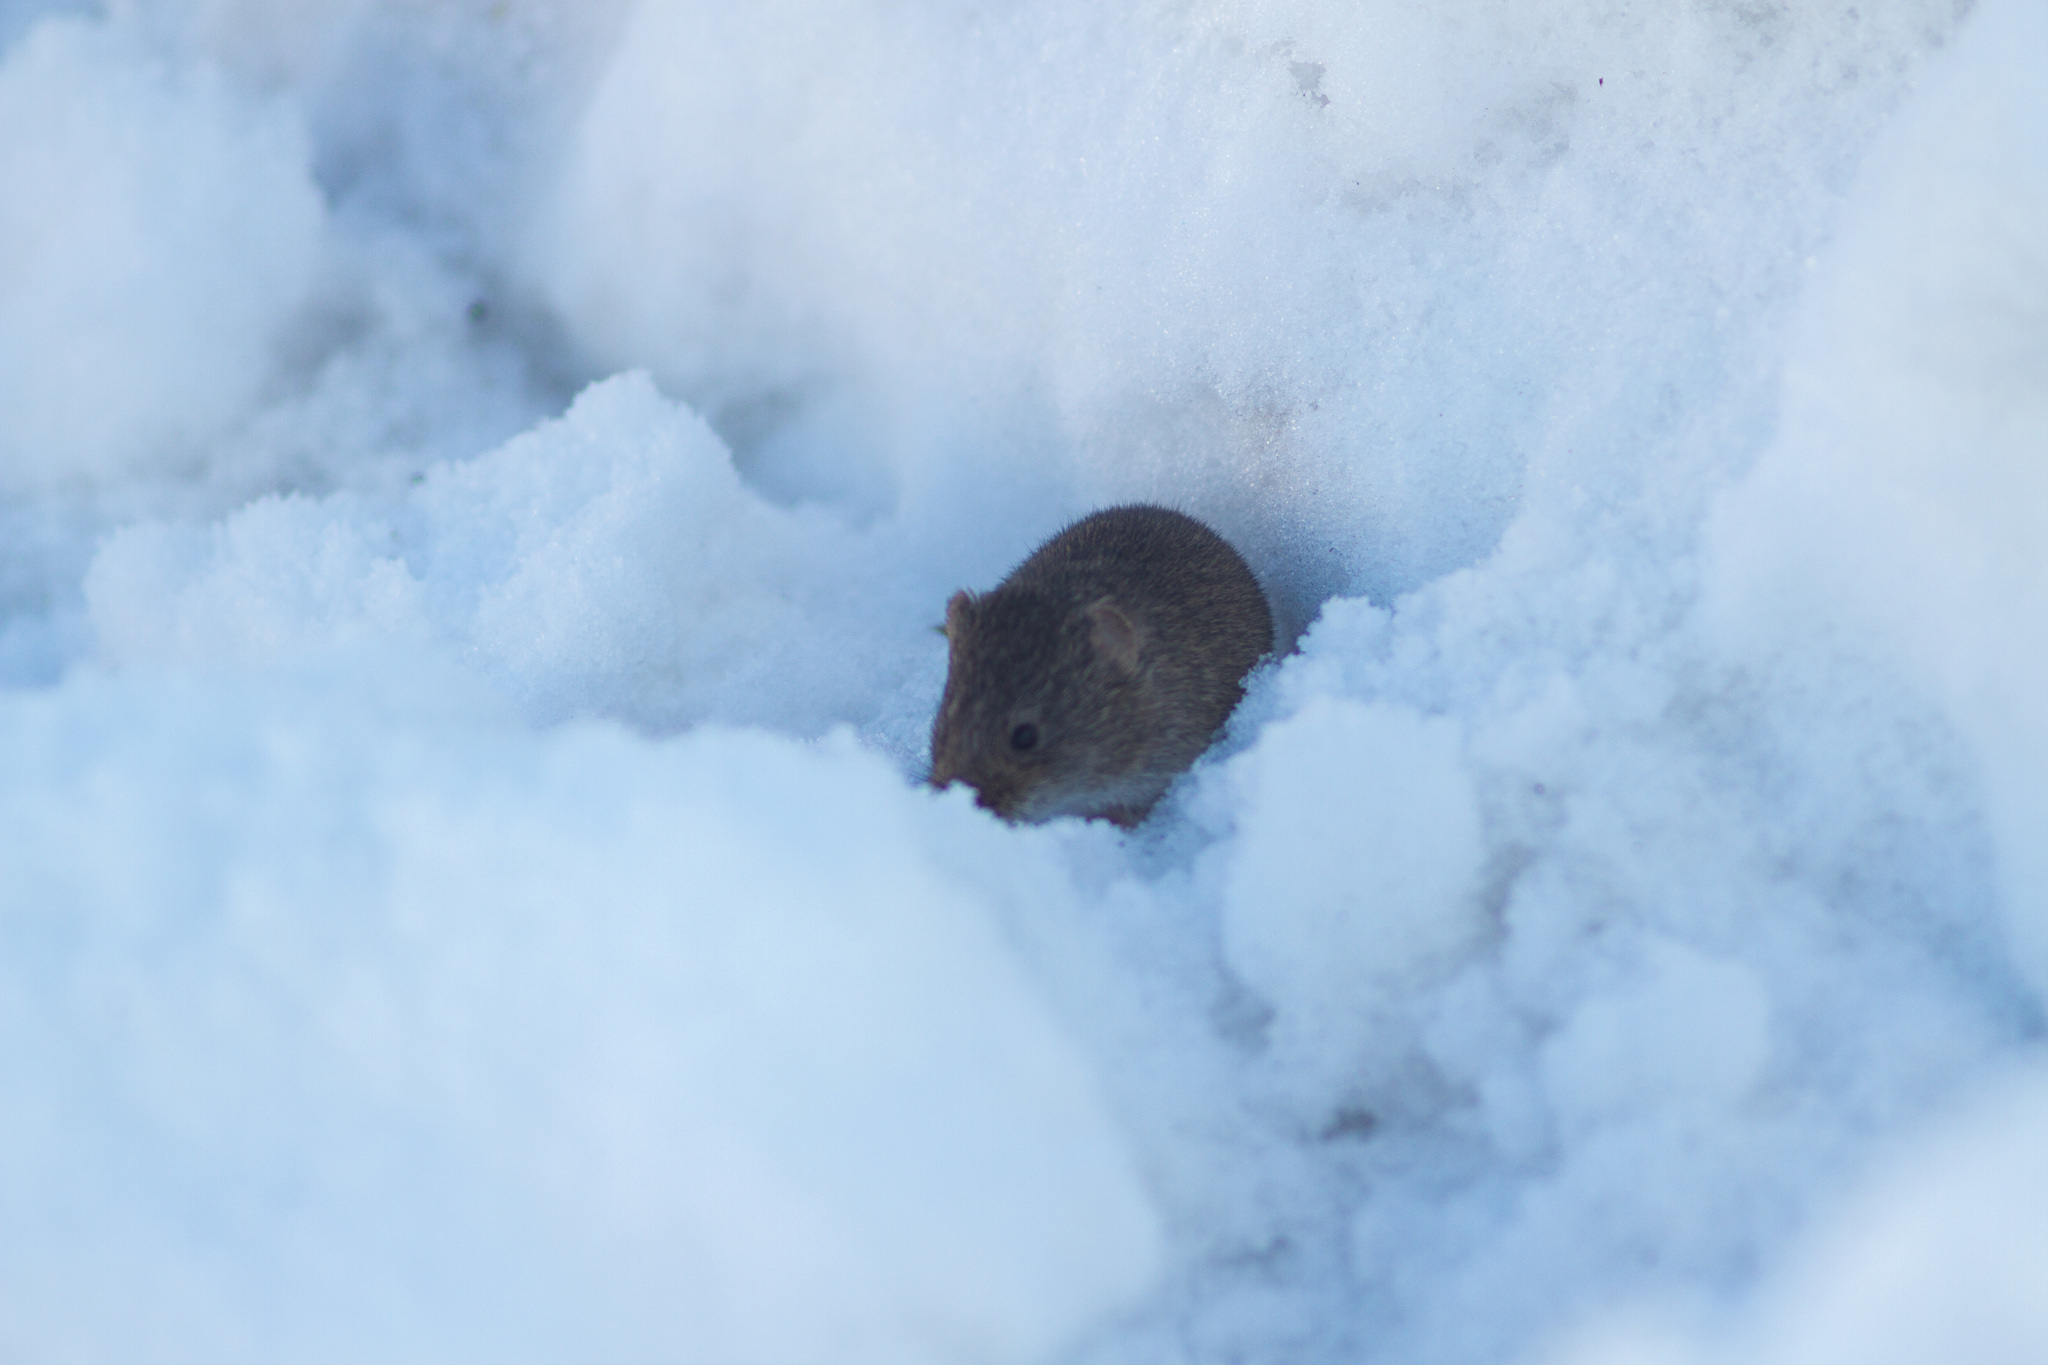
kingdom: Animalia
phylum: Chordata
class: Mammalia
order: Rodentia
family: Cricetidae
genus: Microtus
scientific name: Microtus arvalis
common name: Common vole
